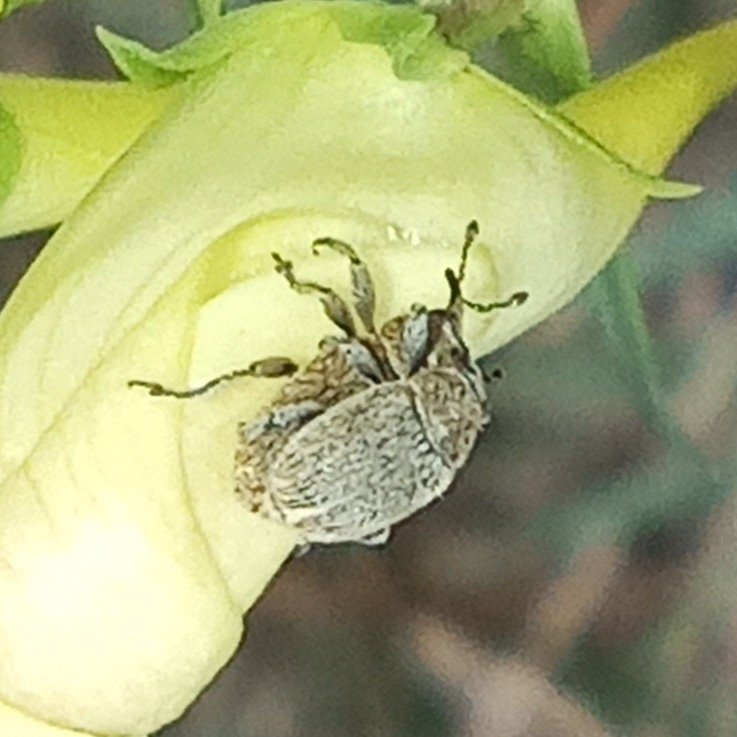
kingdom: Animalia
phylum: Arthropoda
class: Insecta
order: Coleoptera
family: Curculionidae
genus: Rhinusa
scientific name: Rhinusa collina
